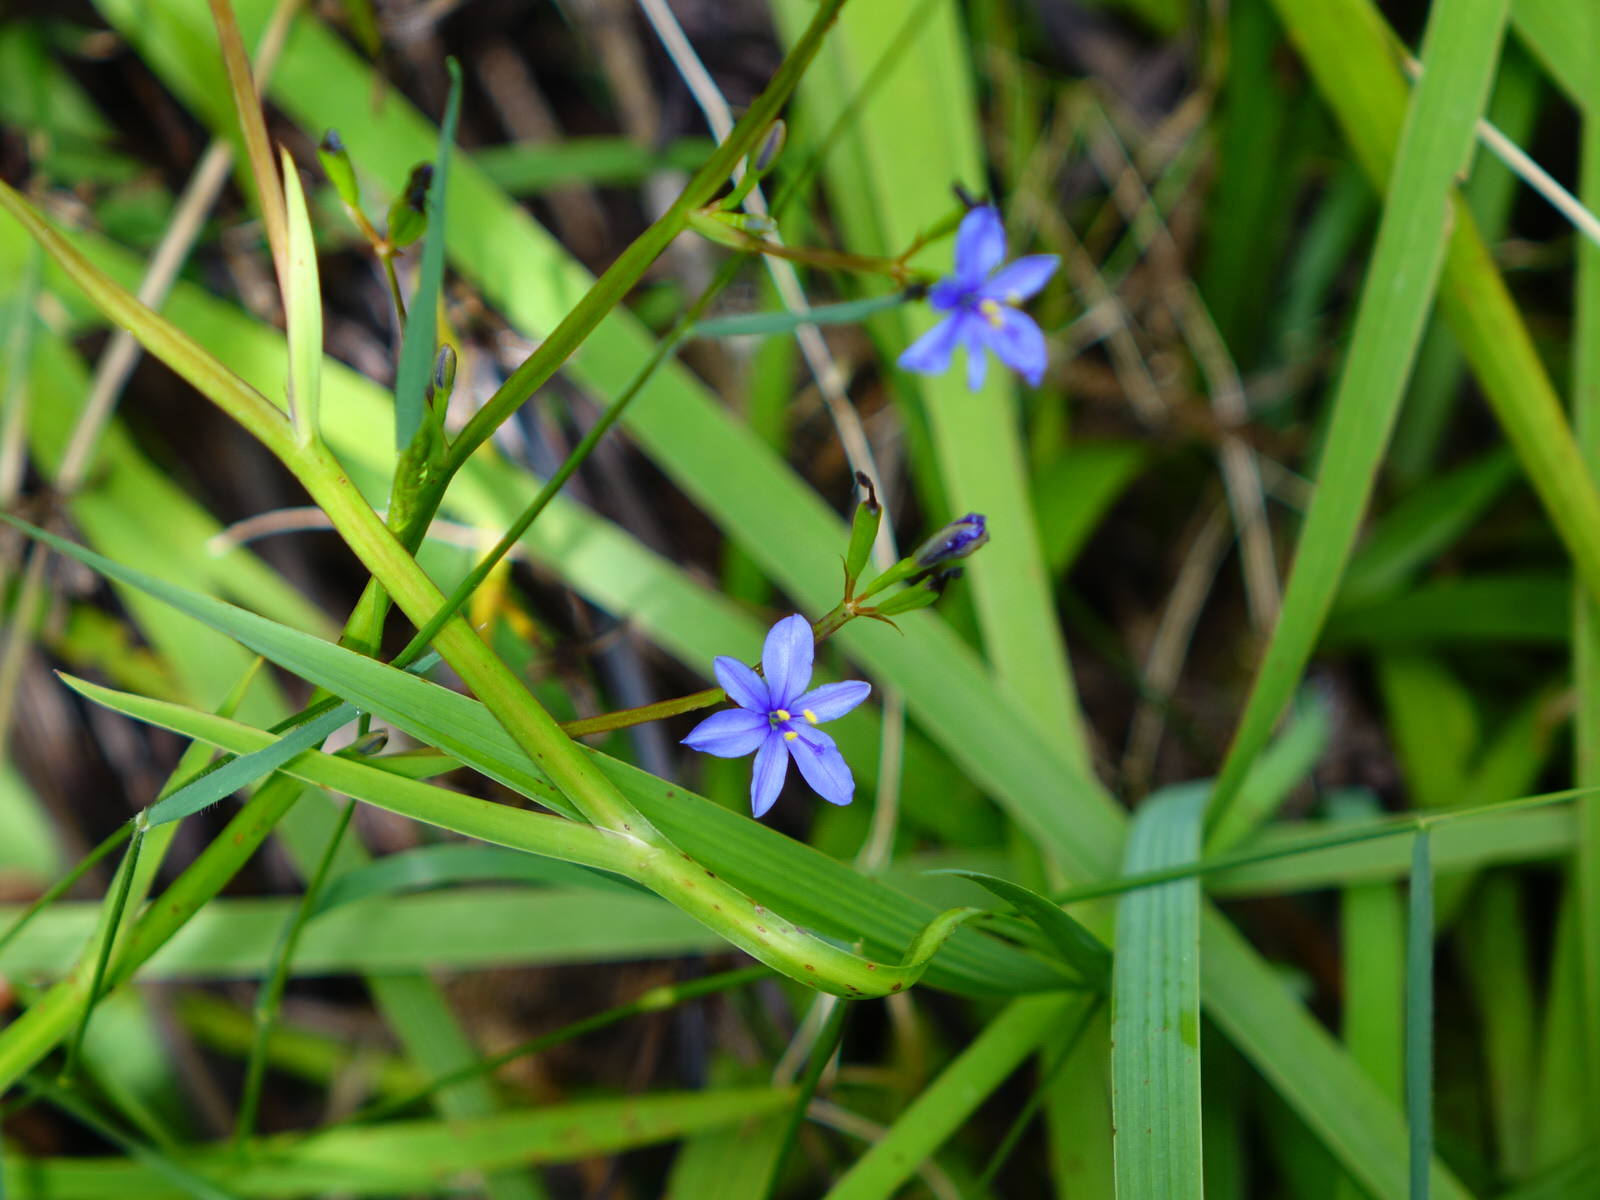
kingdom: Plantae
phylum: Tracheophyta
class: Liliopsida
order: Asparagales
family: Iridaceae
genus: Aristea
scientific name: Aristea ecklonii
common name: Blue corn-lily
